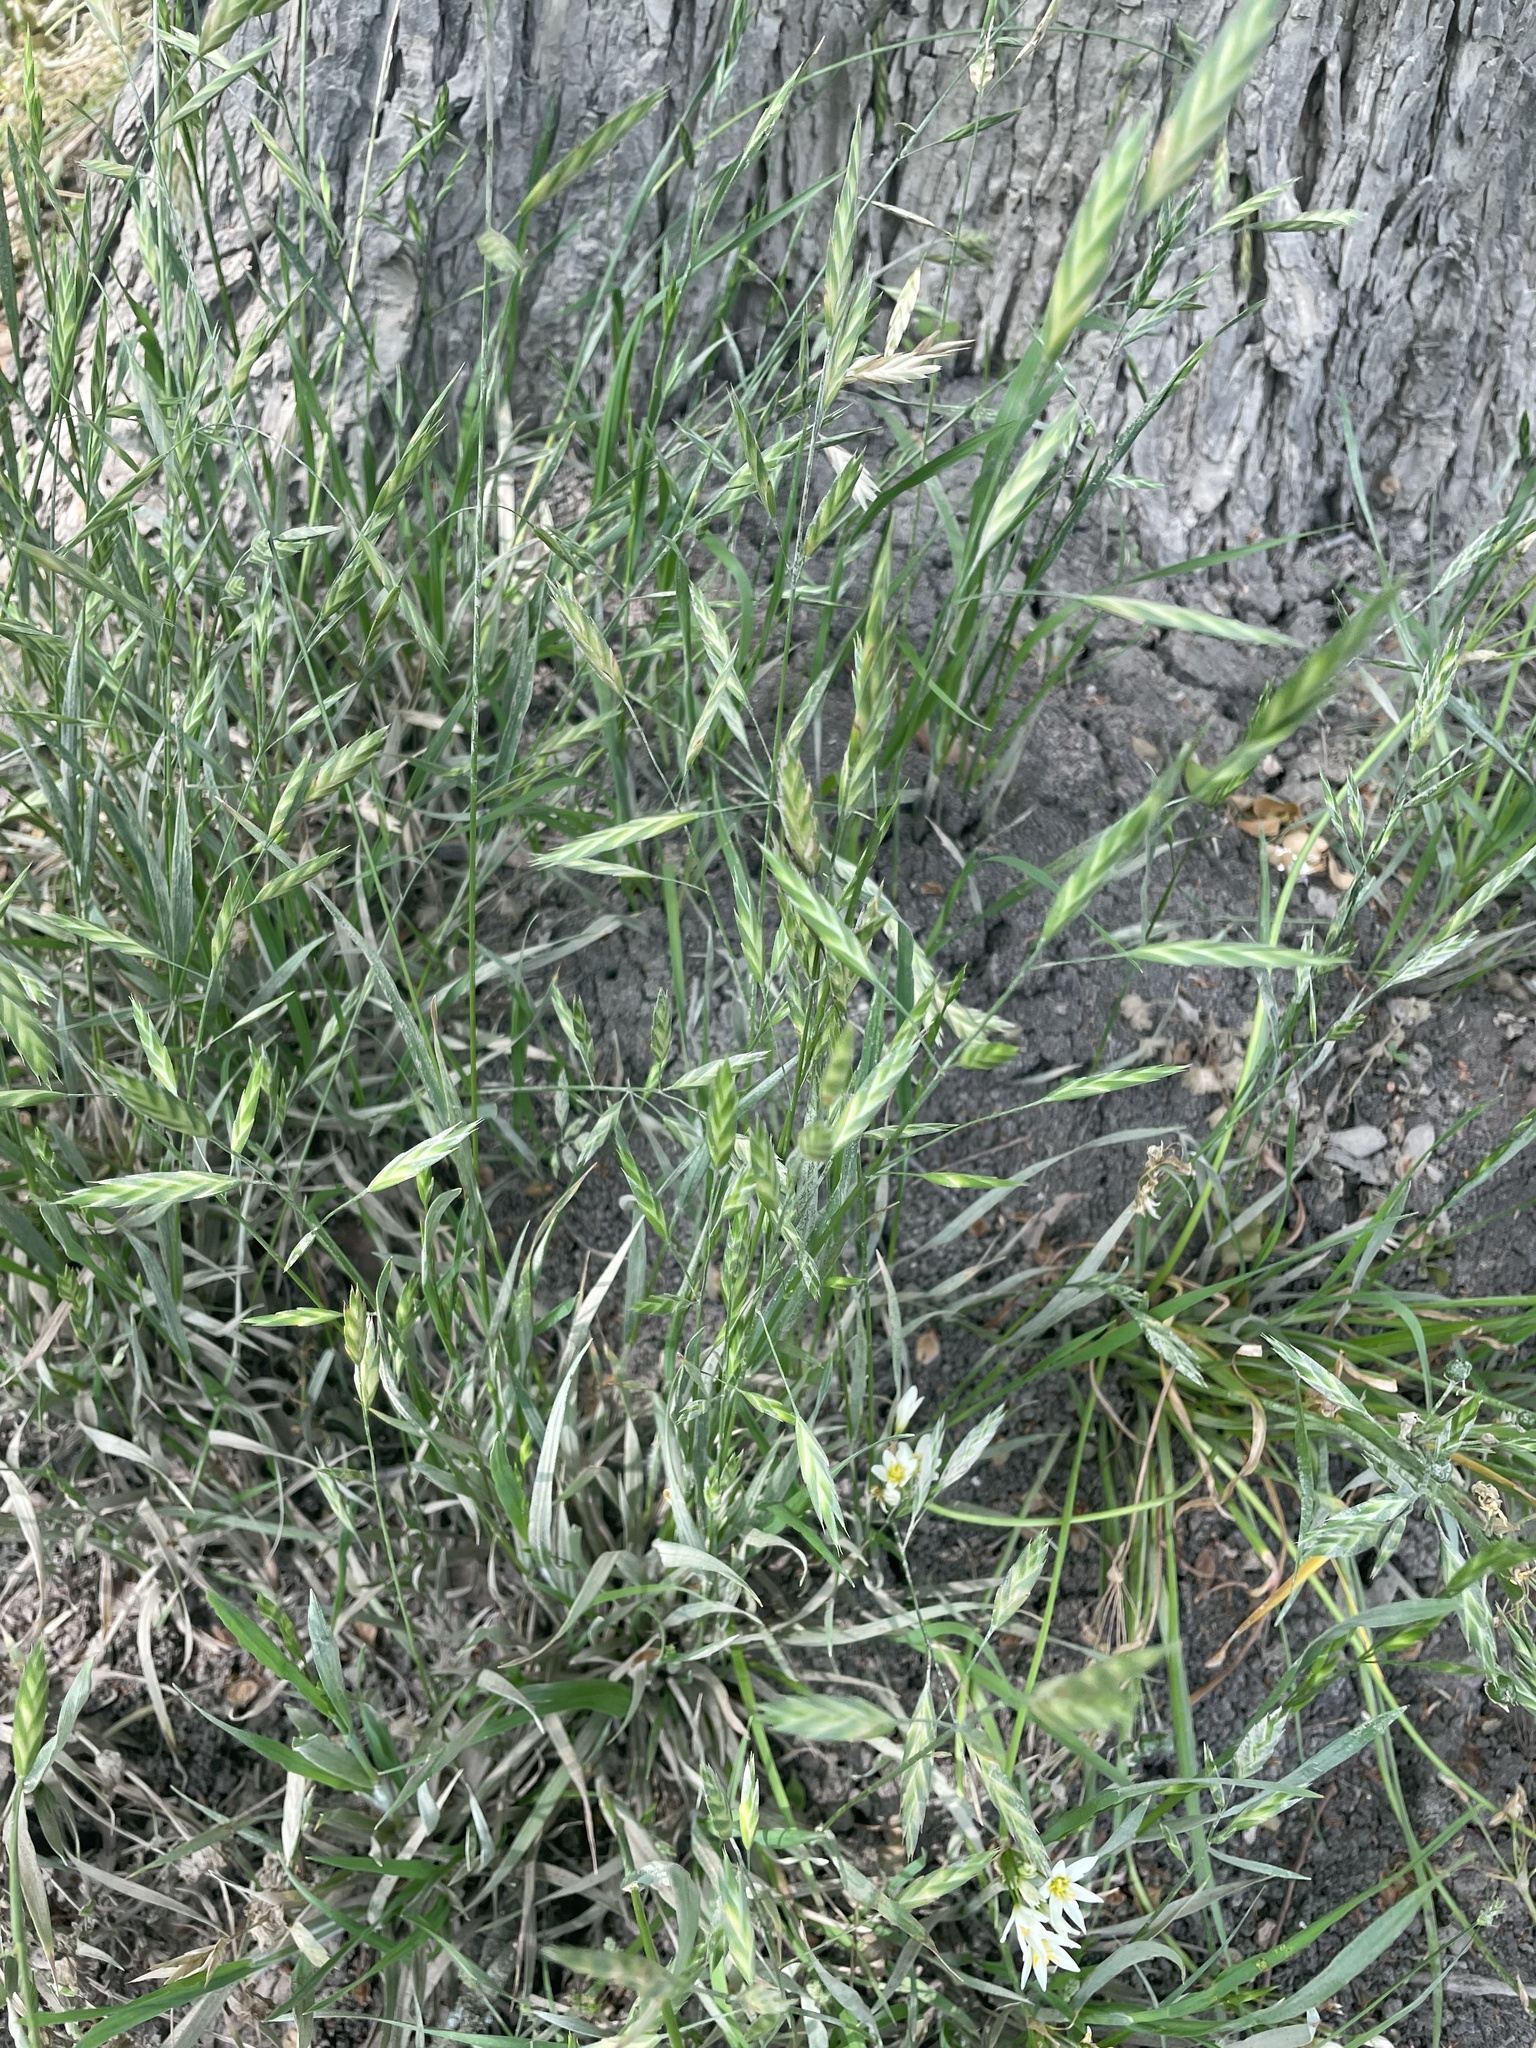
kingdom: Plantae
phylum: Tracheophyta
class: Liliopsida
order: Poales
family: Poaceae
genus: Bromus
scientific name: Bromus catharticus
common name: Rescuegrass
